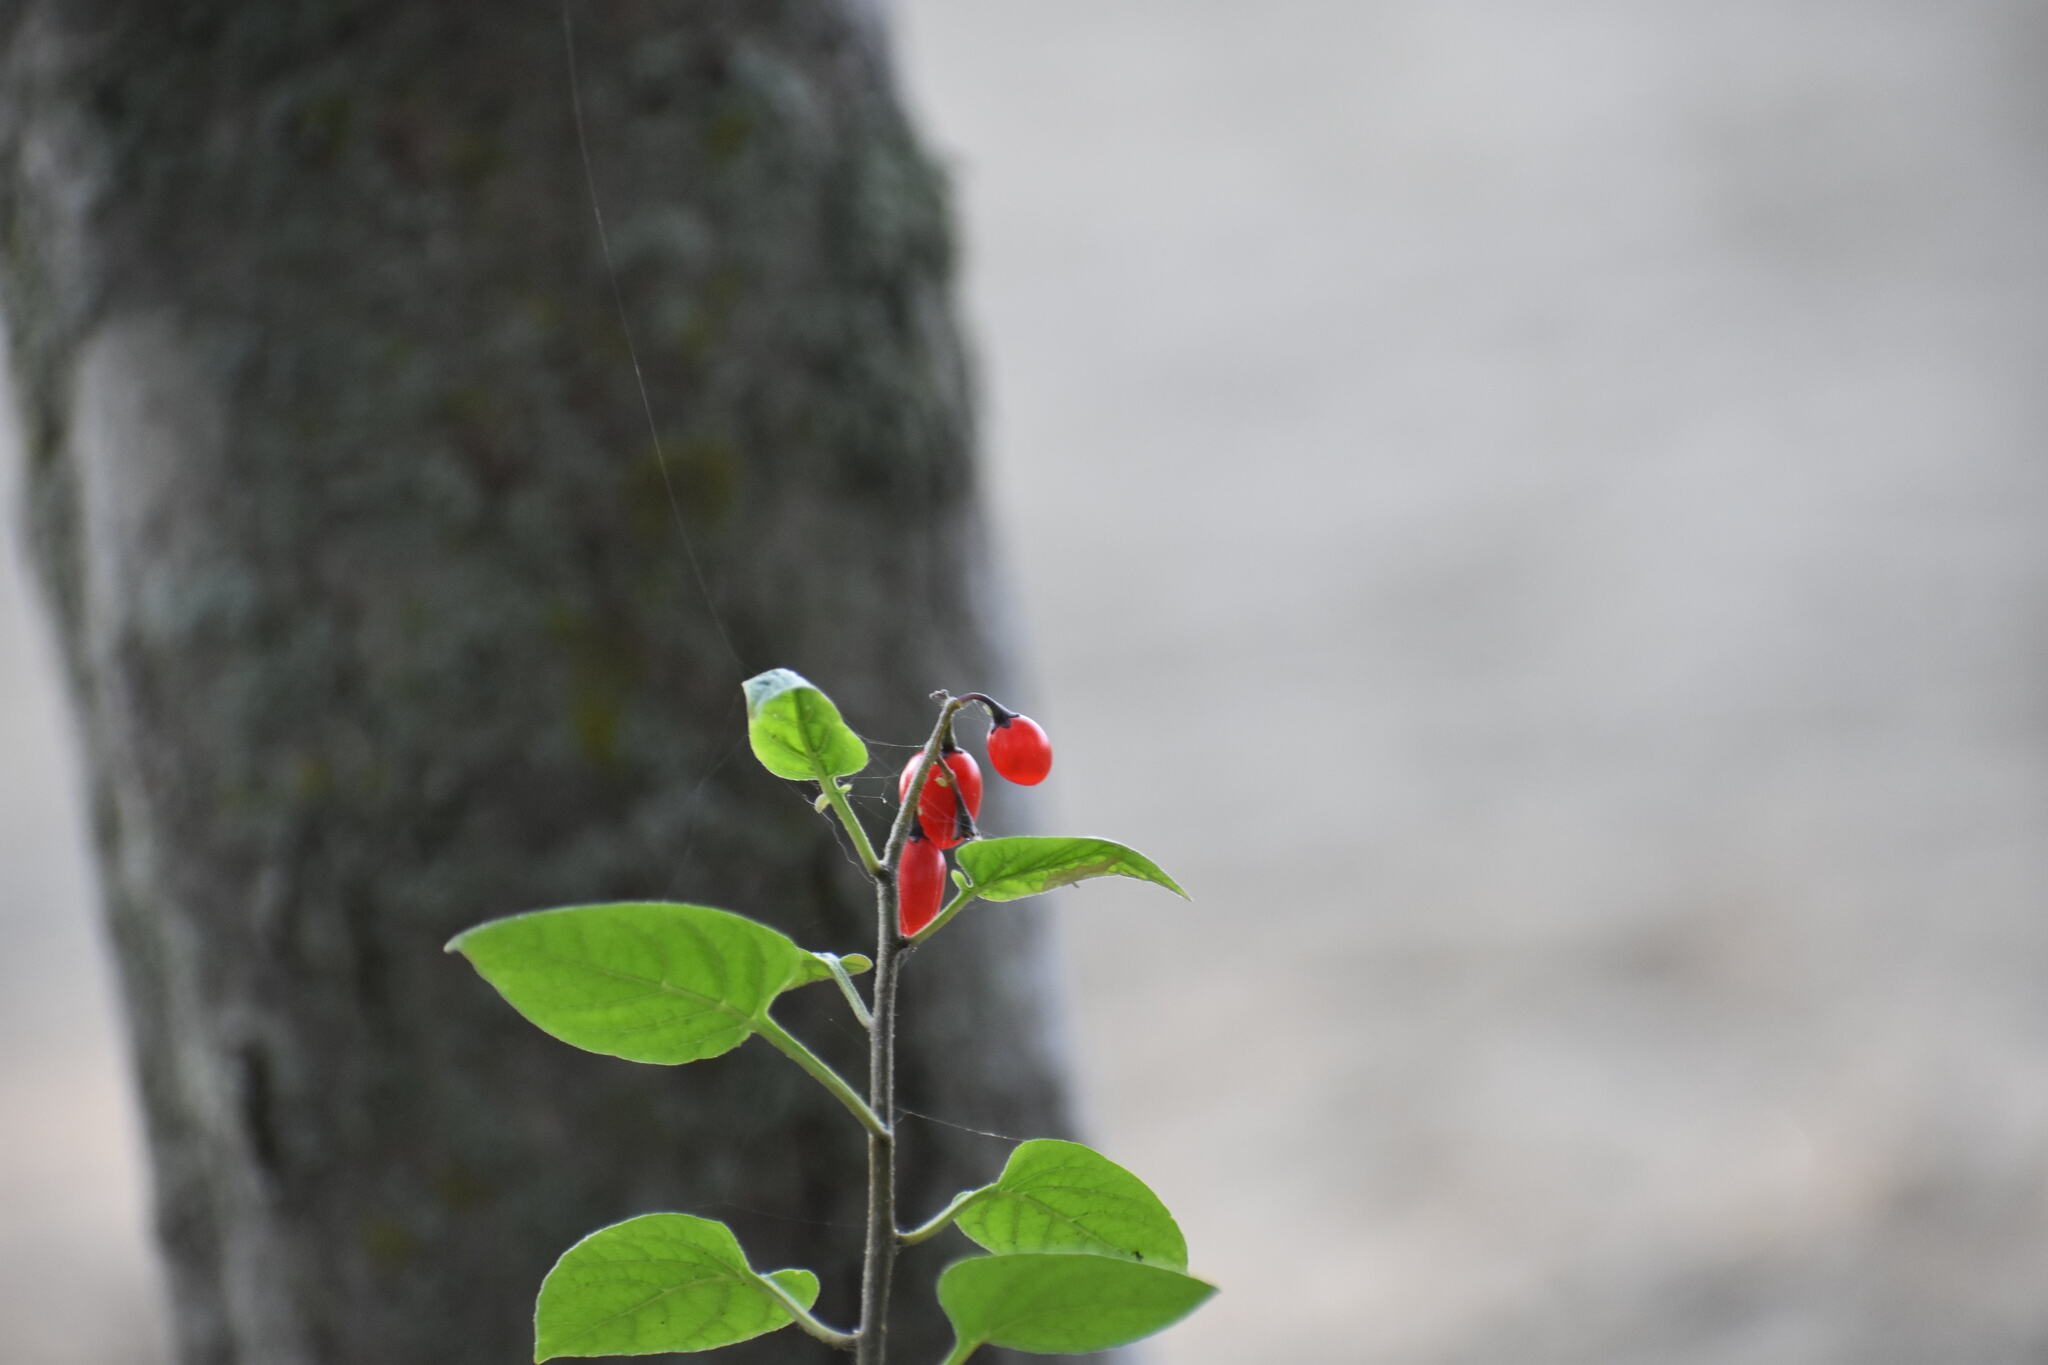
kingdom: Plantae
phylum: Tracheophyta
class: Magnoliopsida
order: Solanales
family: Solanaceae
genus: Solanum
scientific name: Solanum dulcamara
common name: Climbing nightshade
